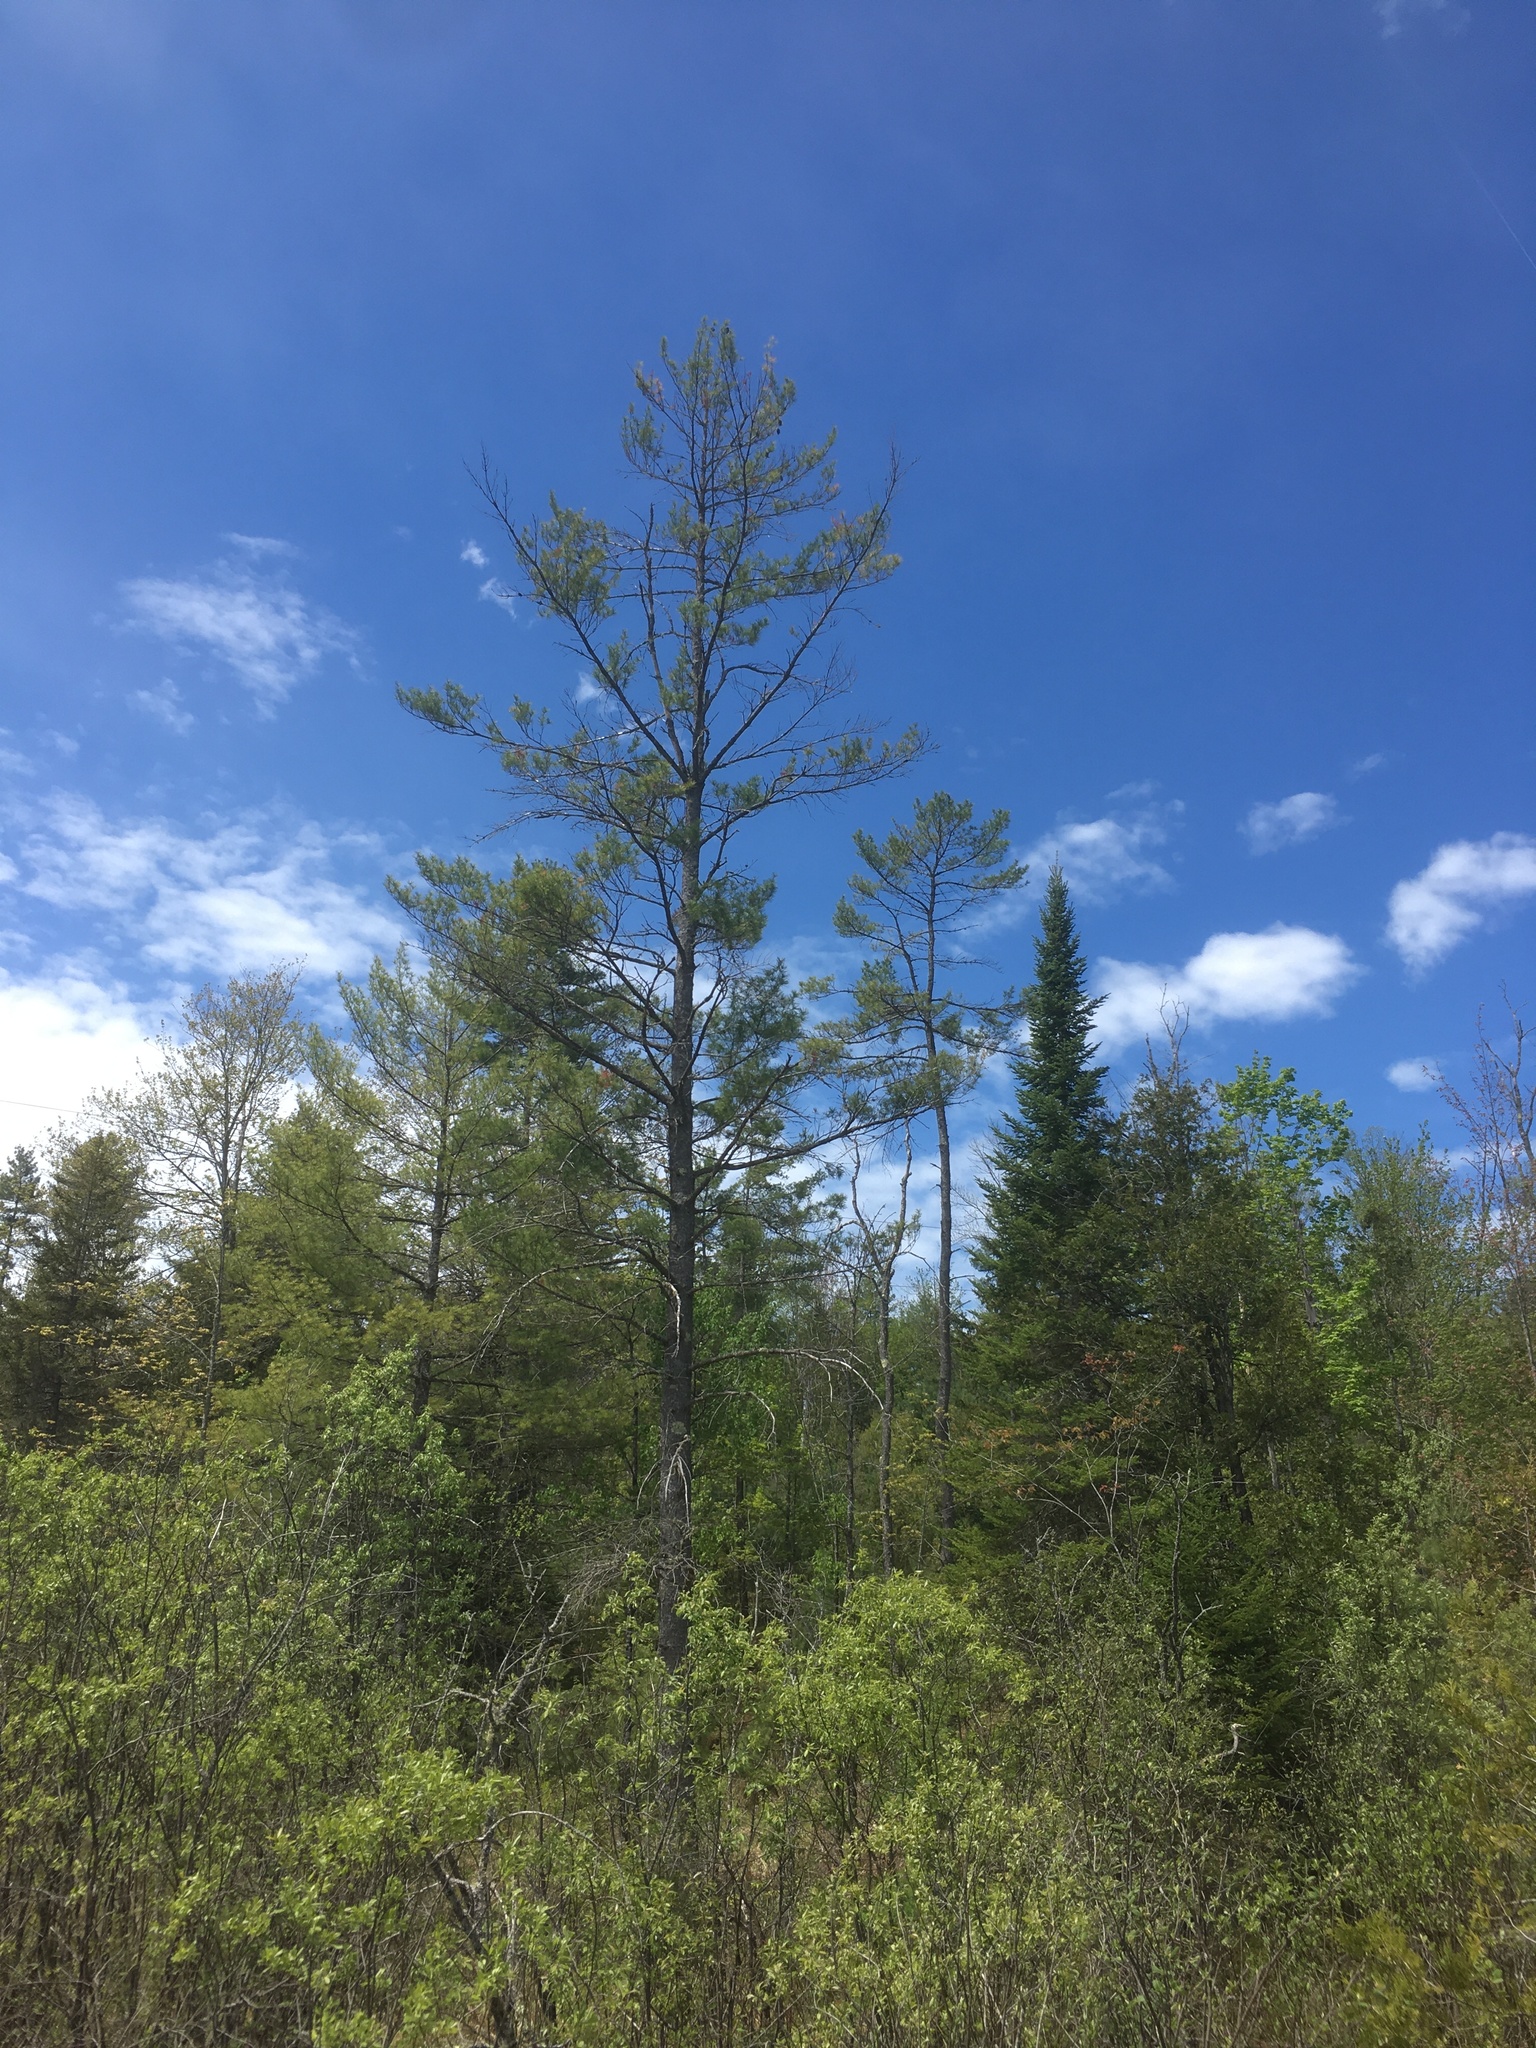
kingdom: Plantae
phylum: Tracheophyta
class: Pinopsida
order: Pinales
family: Pinaceae
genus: Pinus
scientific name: Pinus strobus
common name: Weymouth pine
